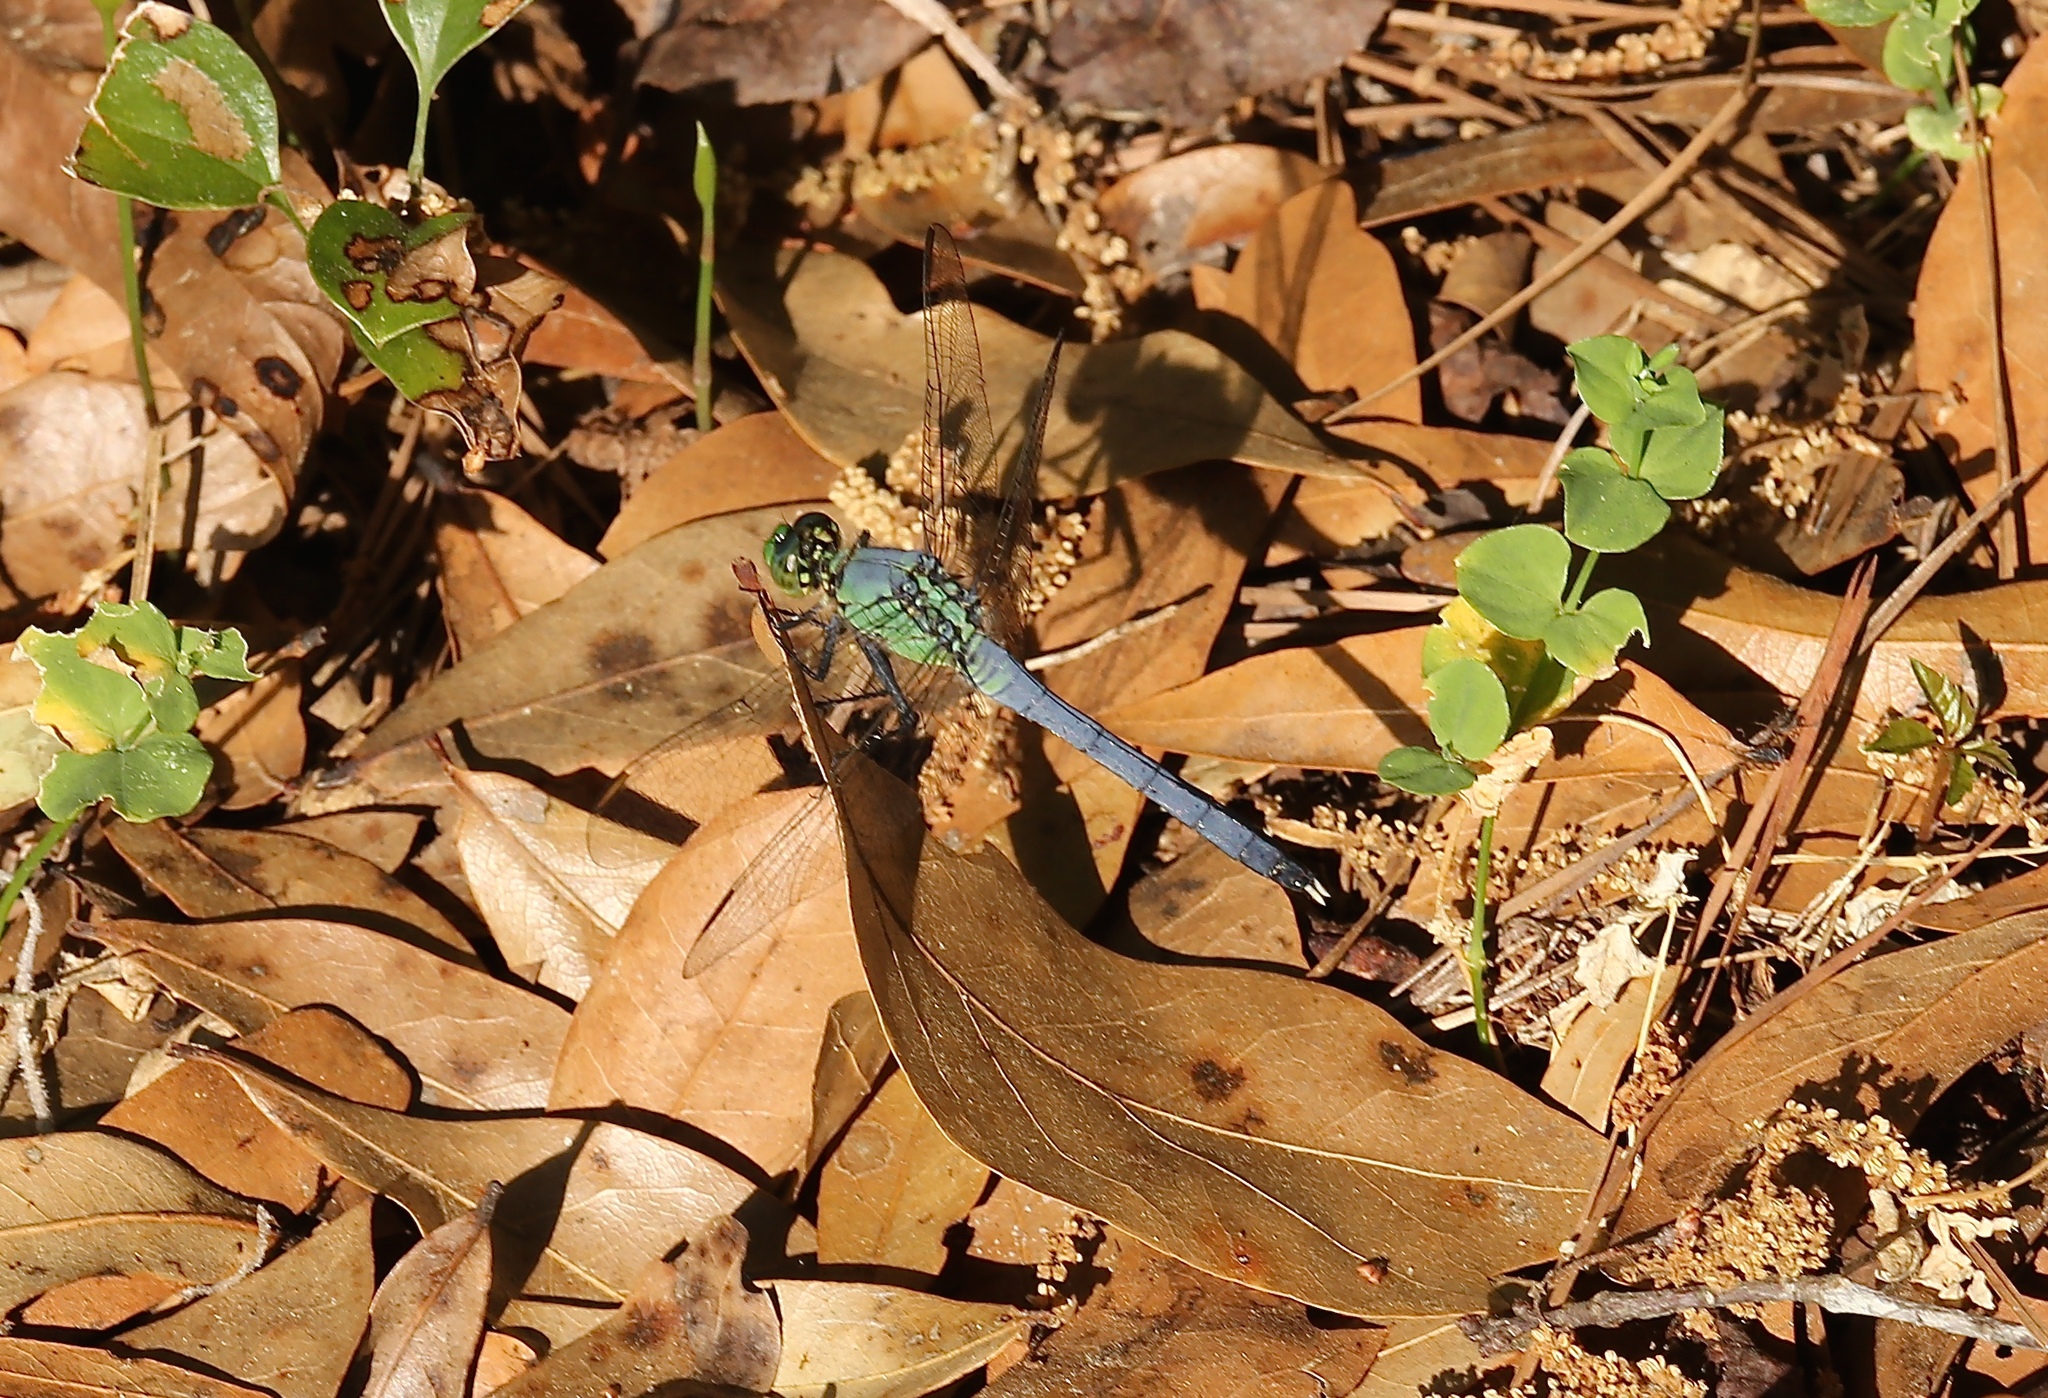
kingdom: Animalia
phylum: Arthropoda
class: Insecta
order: Odonata
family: Libellulidae
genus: Erythemis
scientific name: Erythemis simplicicollis
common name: Eastern pondhawk
